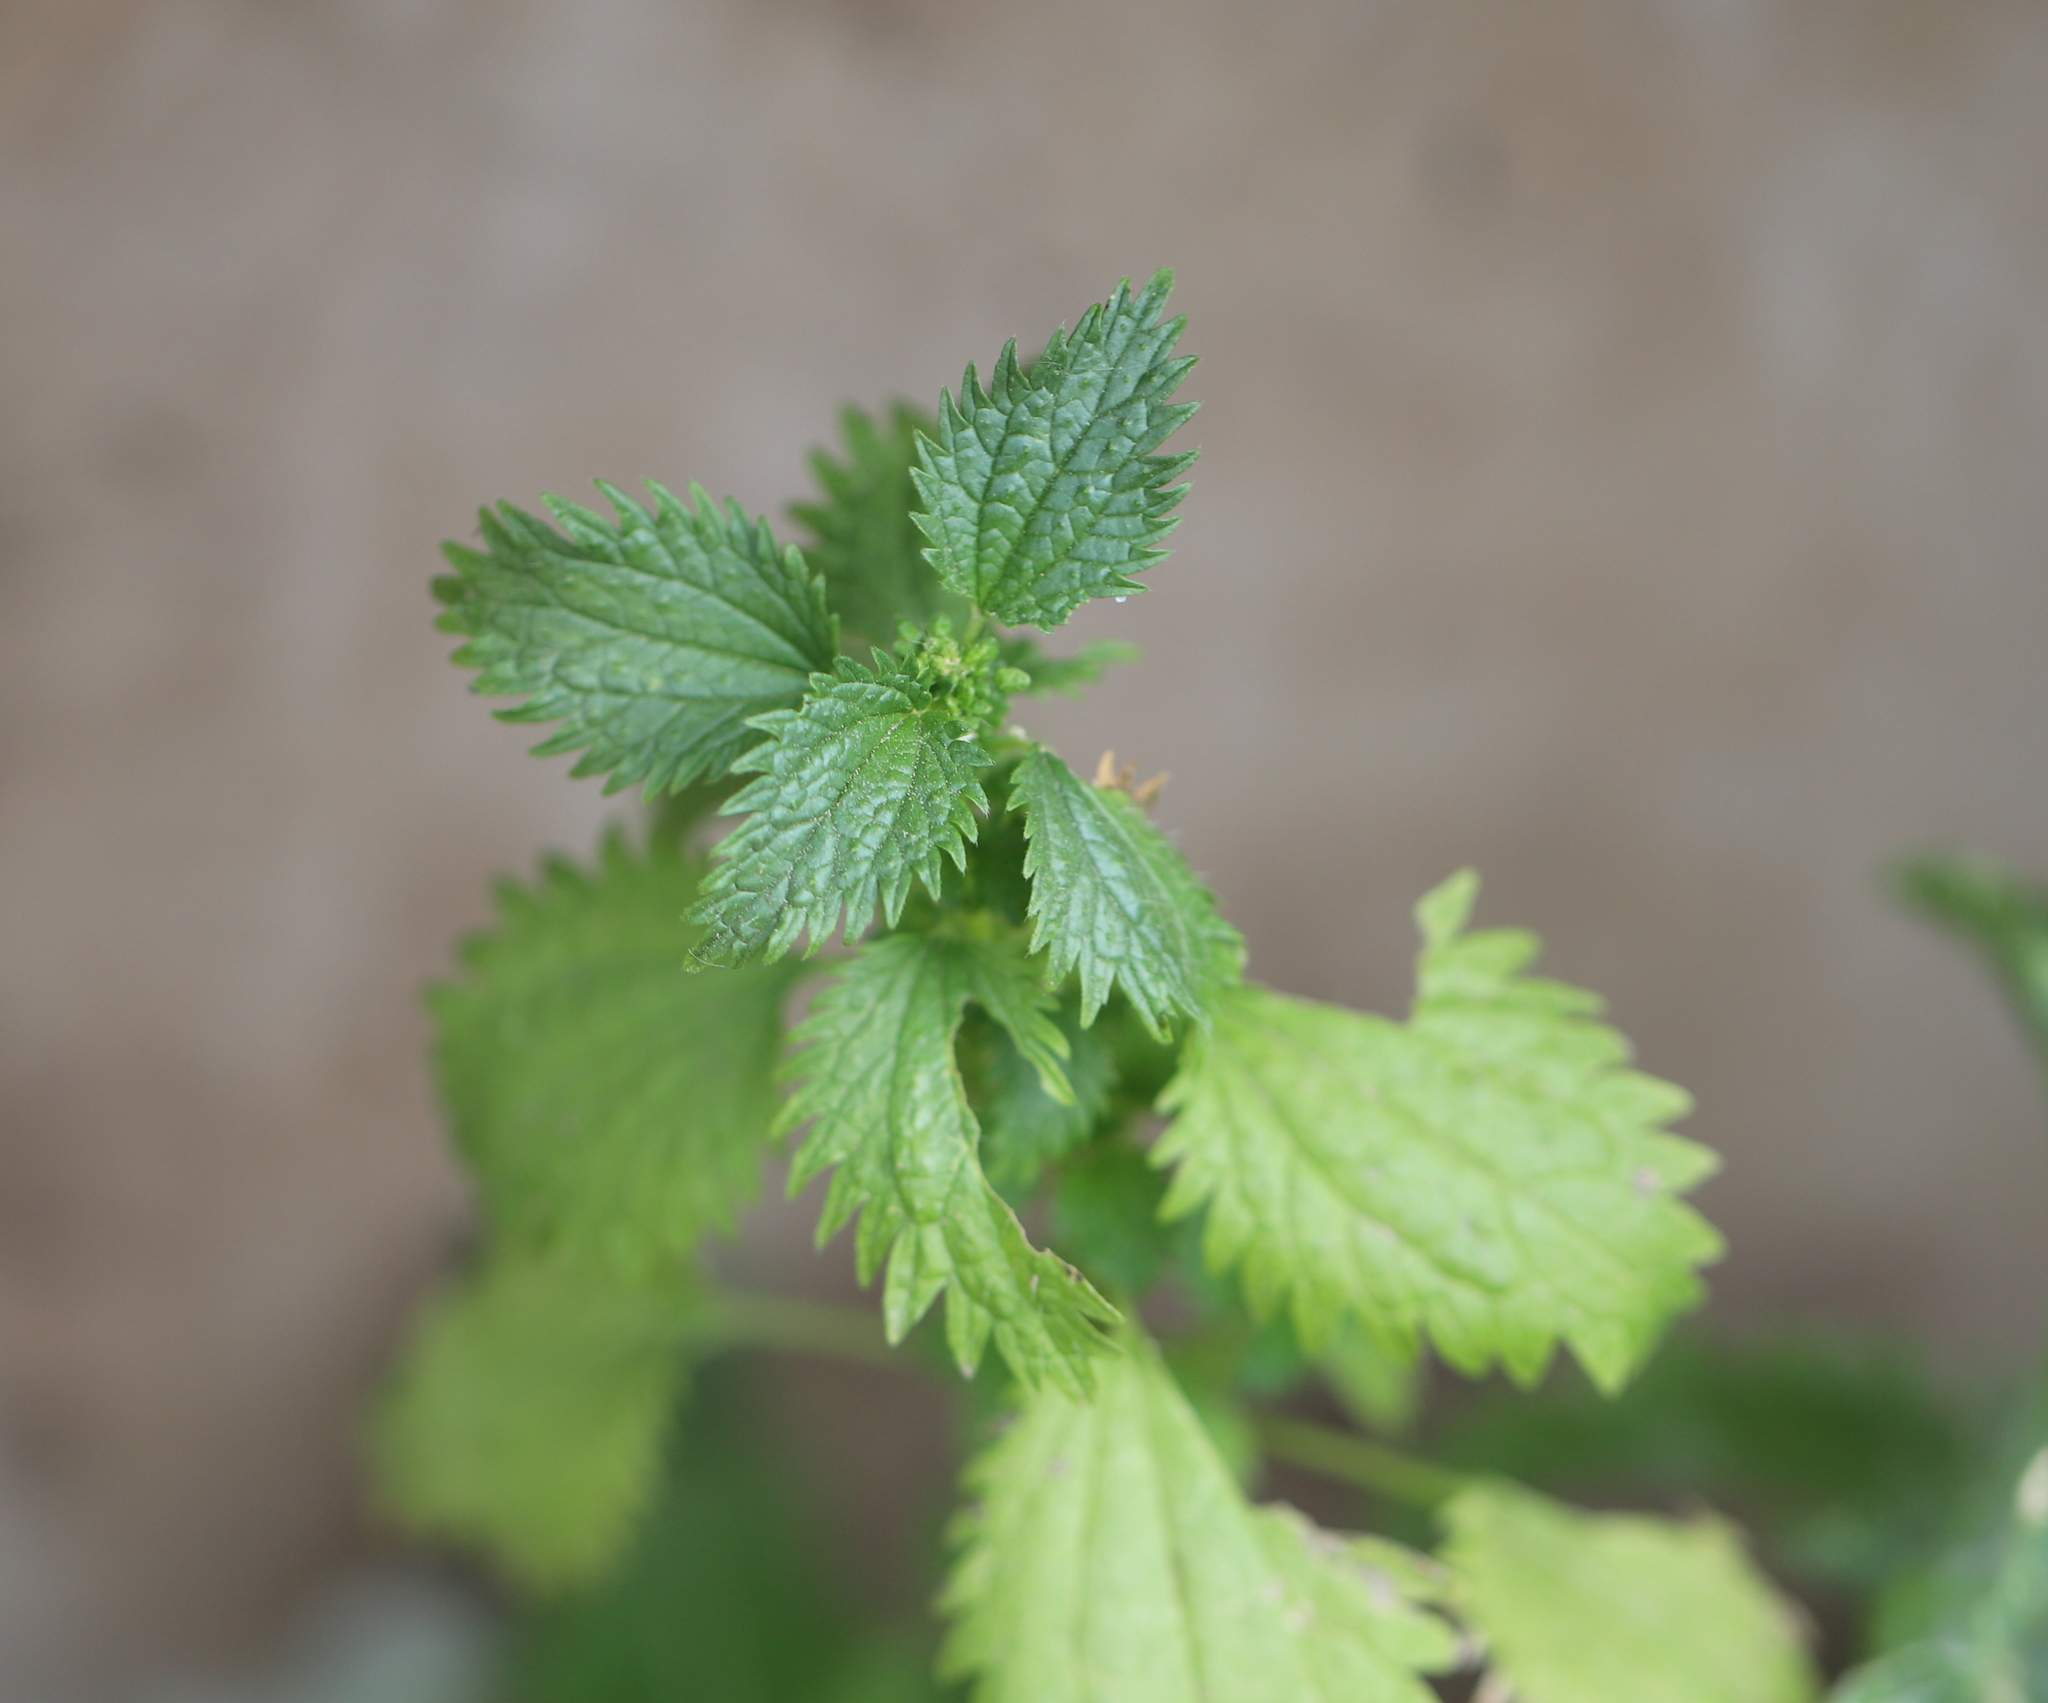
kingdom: Plantae
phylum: Tracheophyta
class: Magnoliopsida
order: Rosales
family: Urticaceae
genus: Urtica
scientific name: Urtica urens
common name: Dwarf nettle
